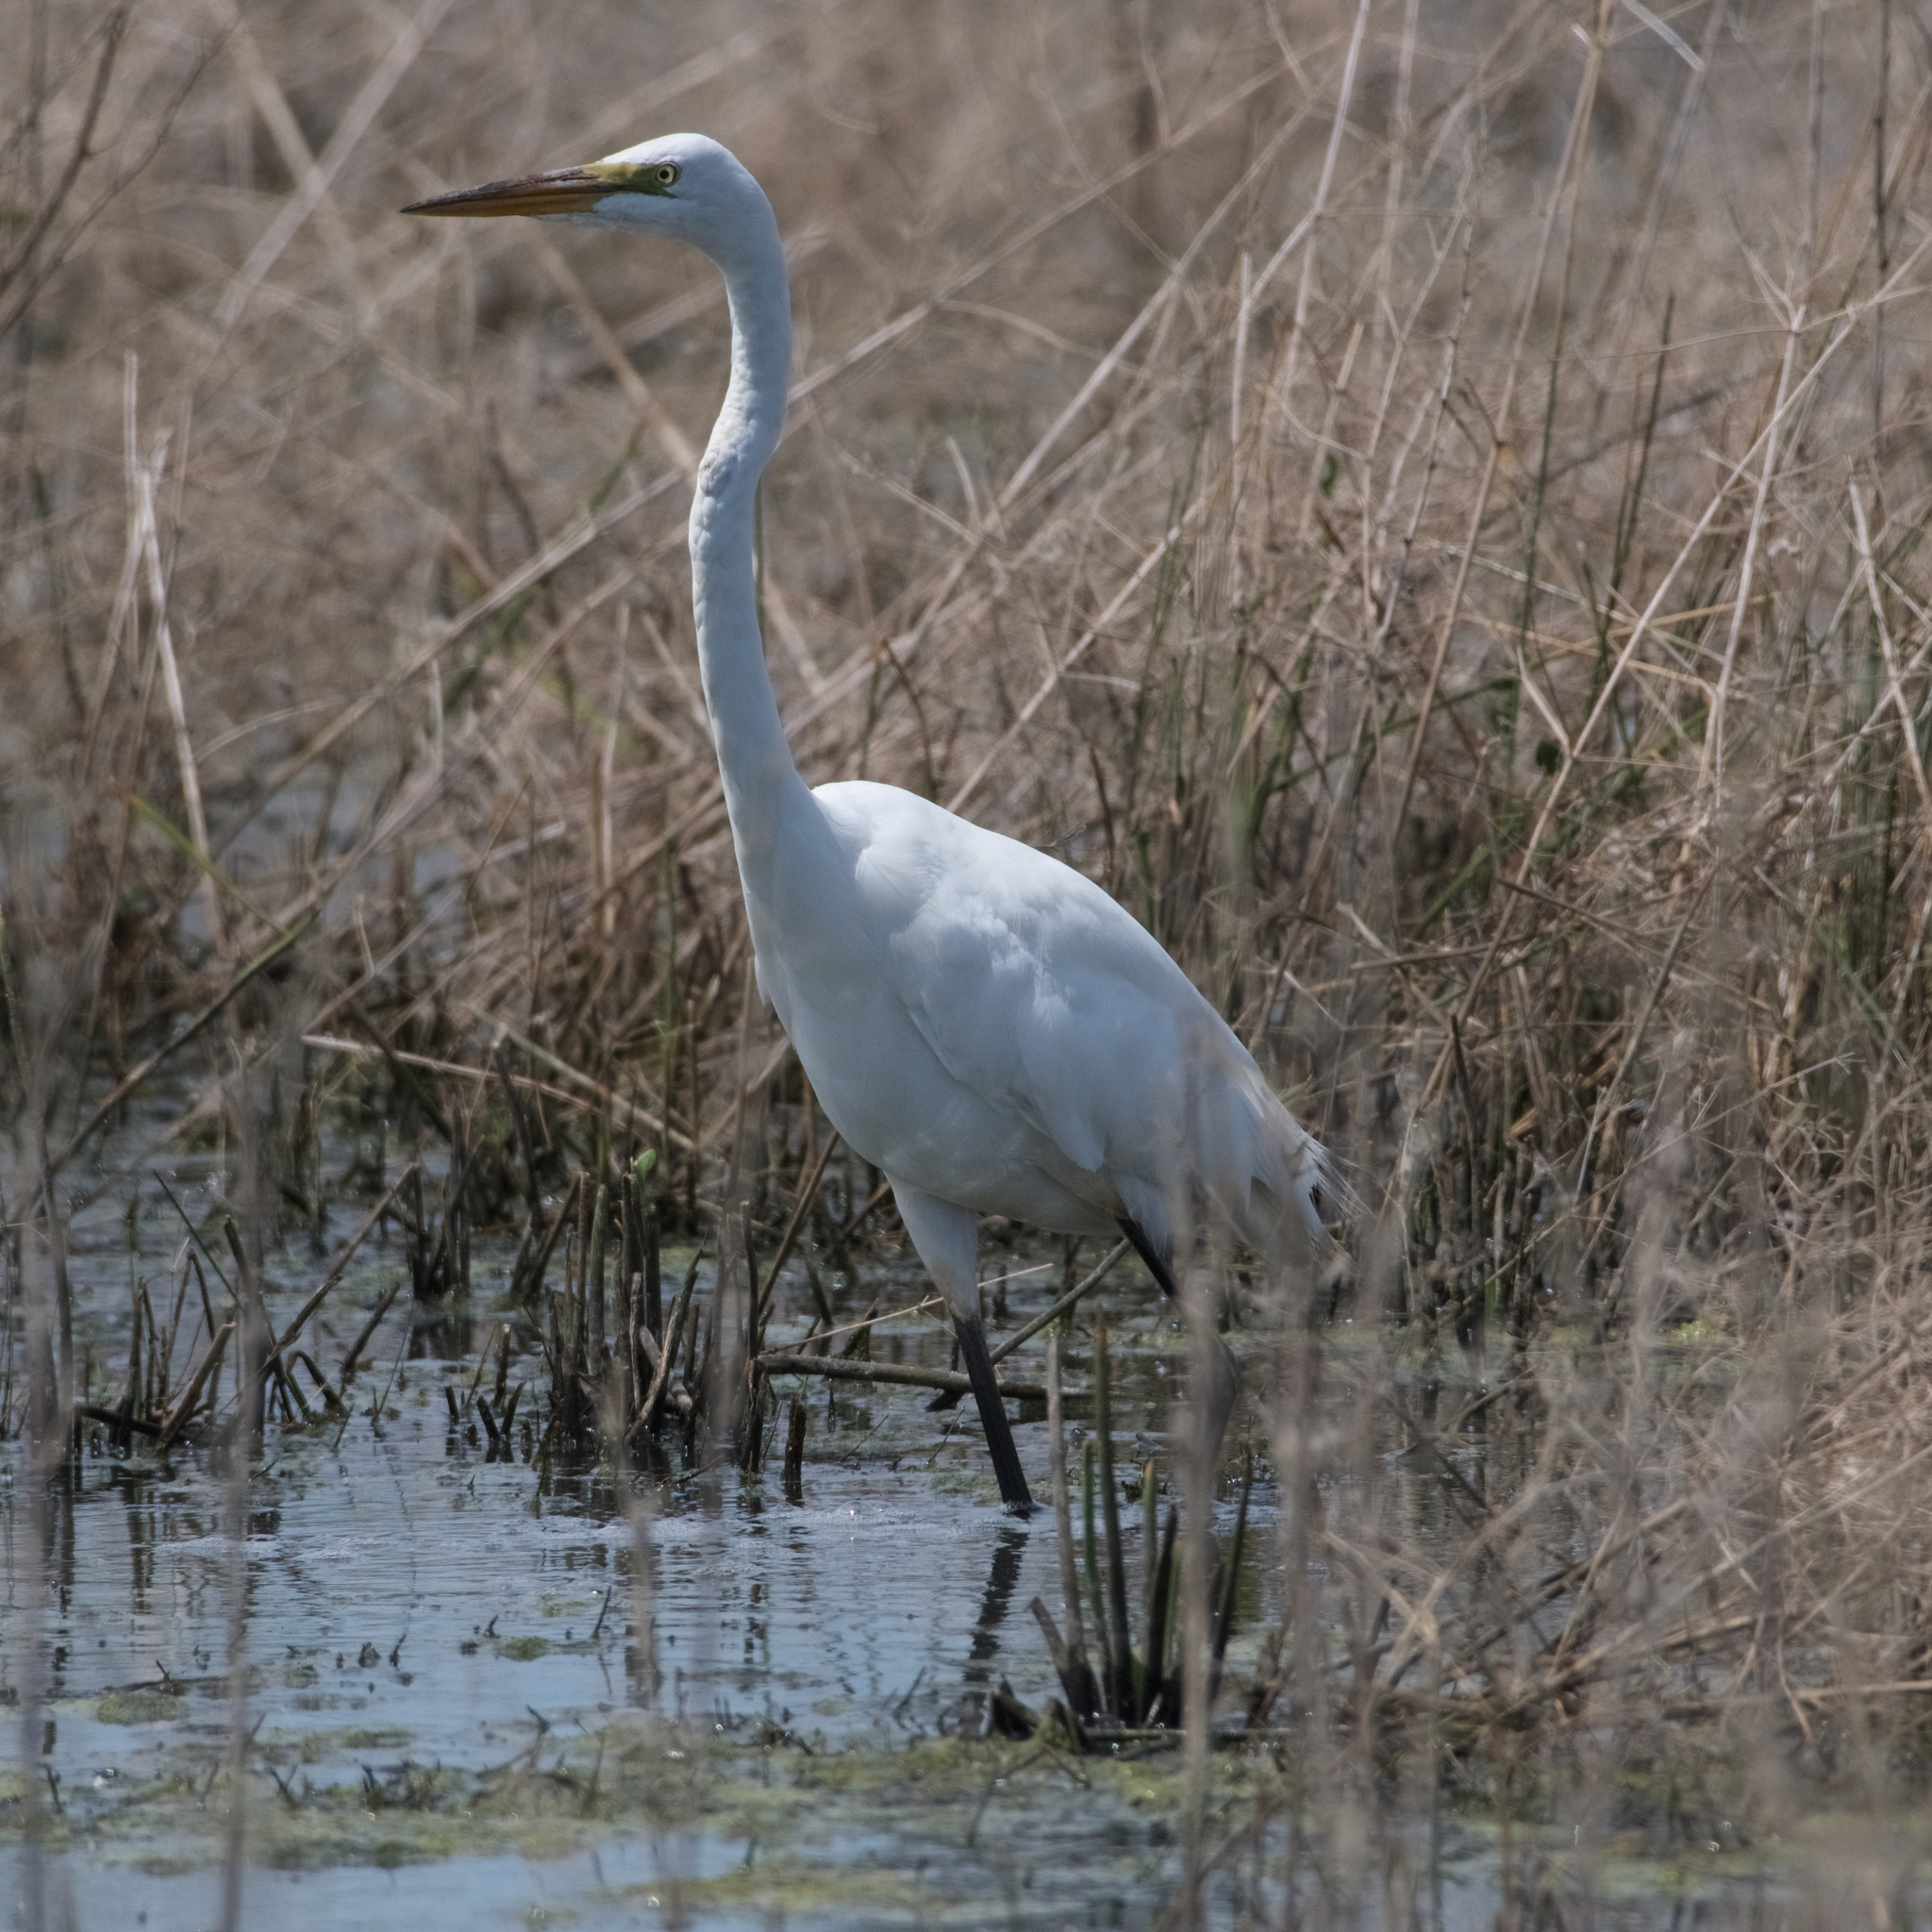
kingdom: Animalia
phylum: Chordata
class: Aves
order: Pelecaniformes
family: Ardeidae
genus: Ardea
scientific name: Ardea alba
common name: Great egret
